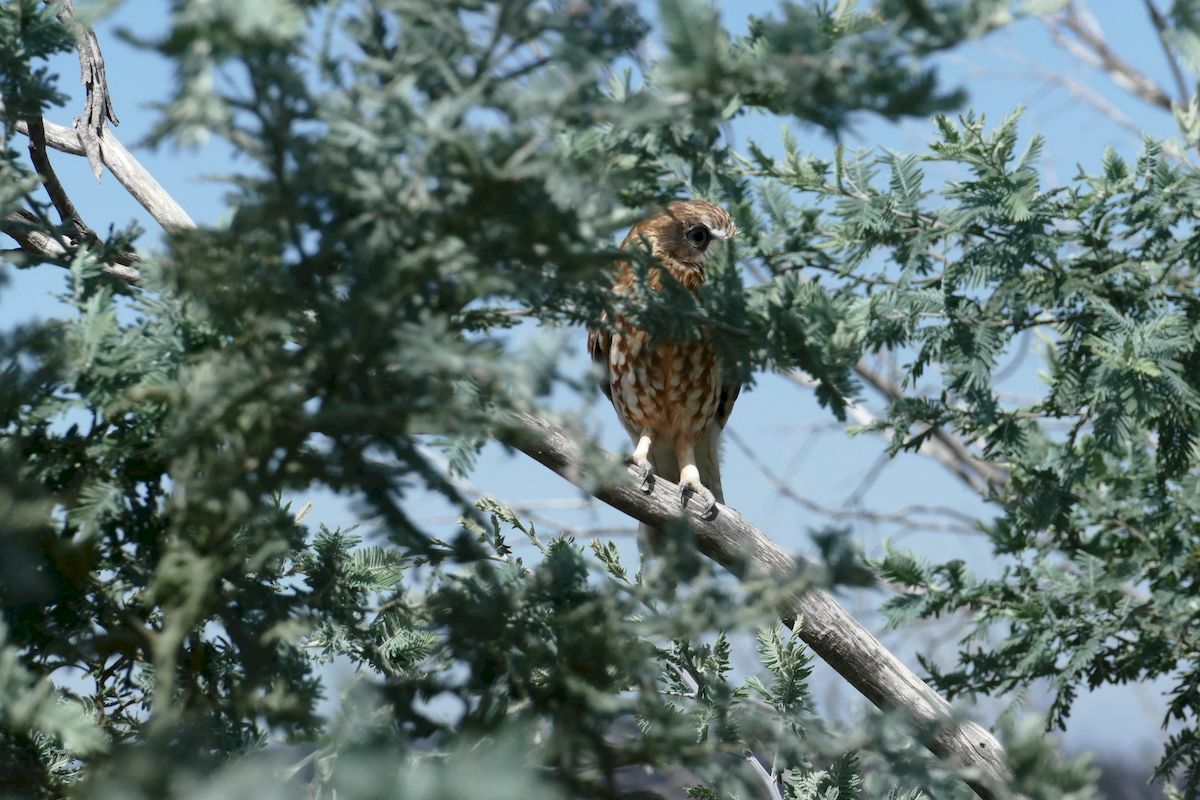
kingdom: Animalia
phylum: Chordata
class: Aves
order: Strigiformes
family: Strigidae
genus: Ninox
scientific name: Ninox boobook
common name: Southern boobook
